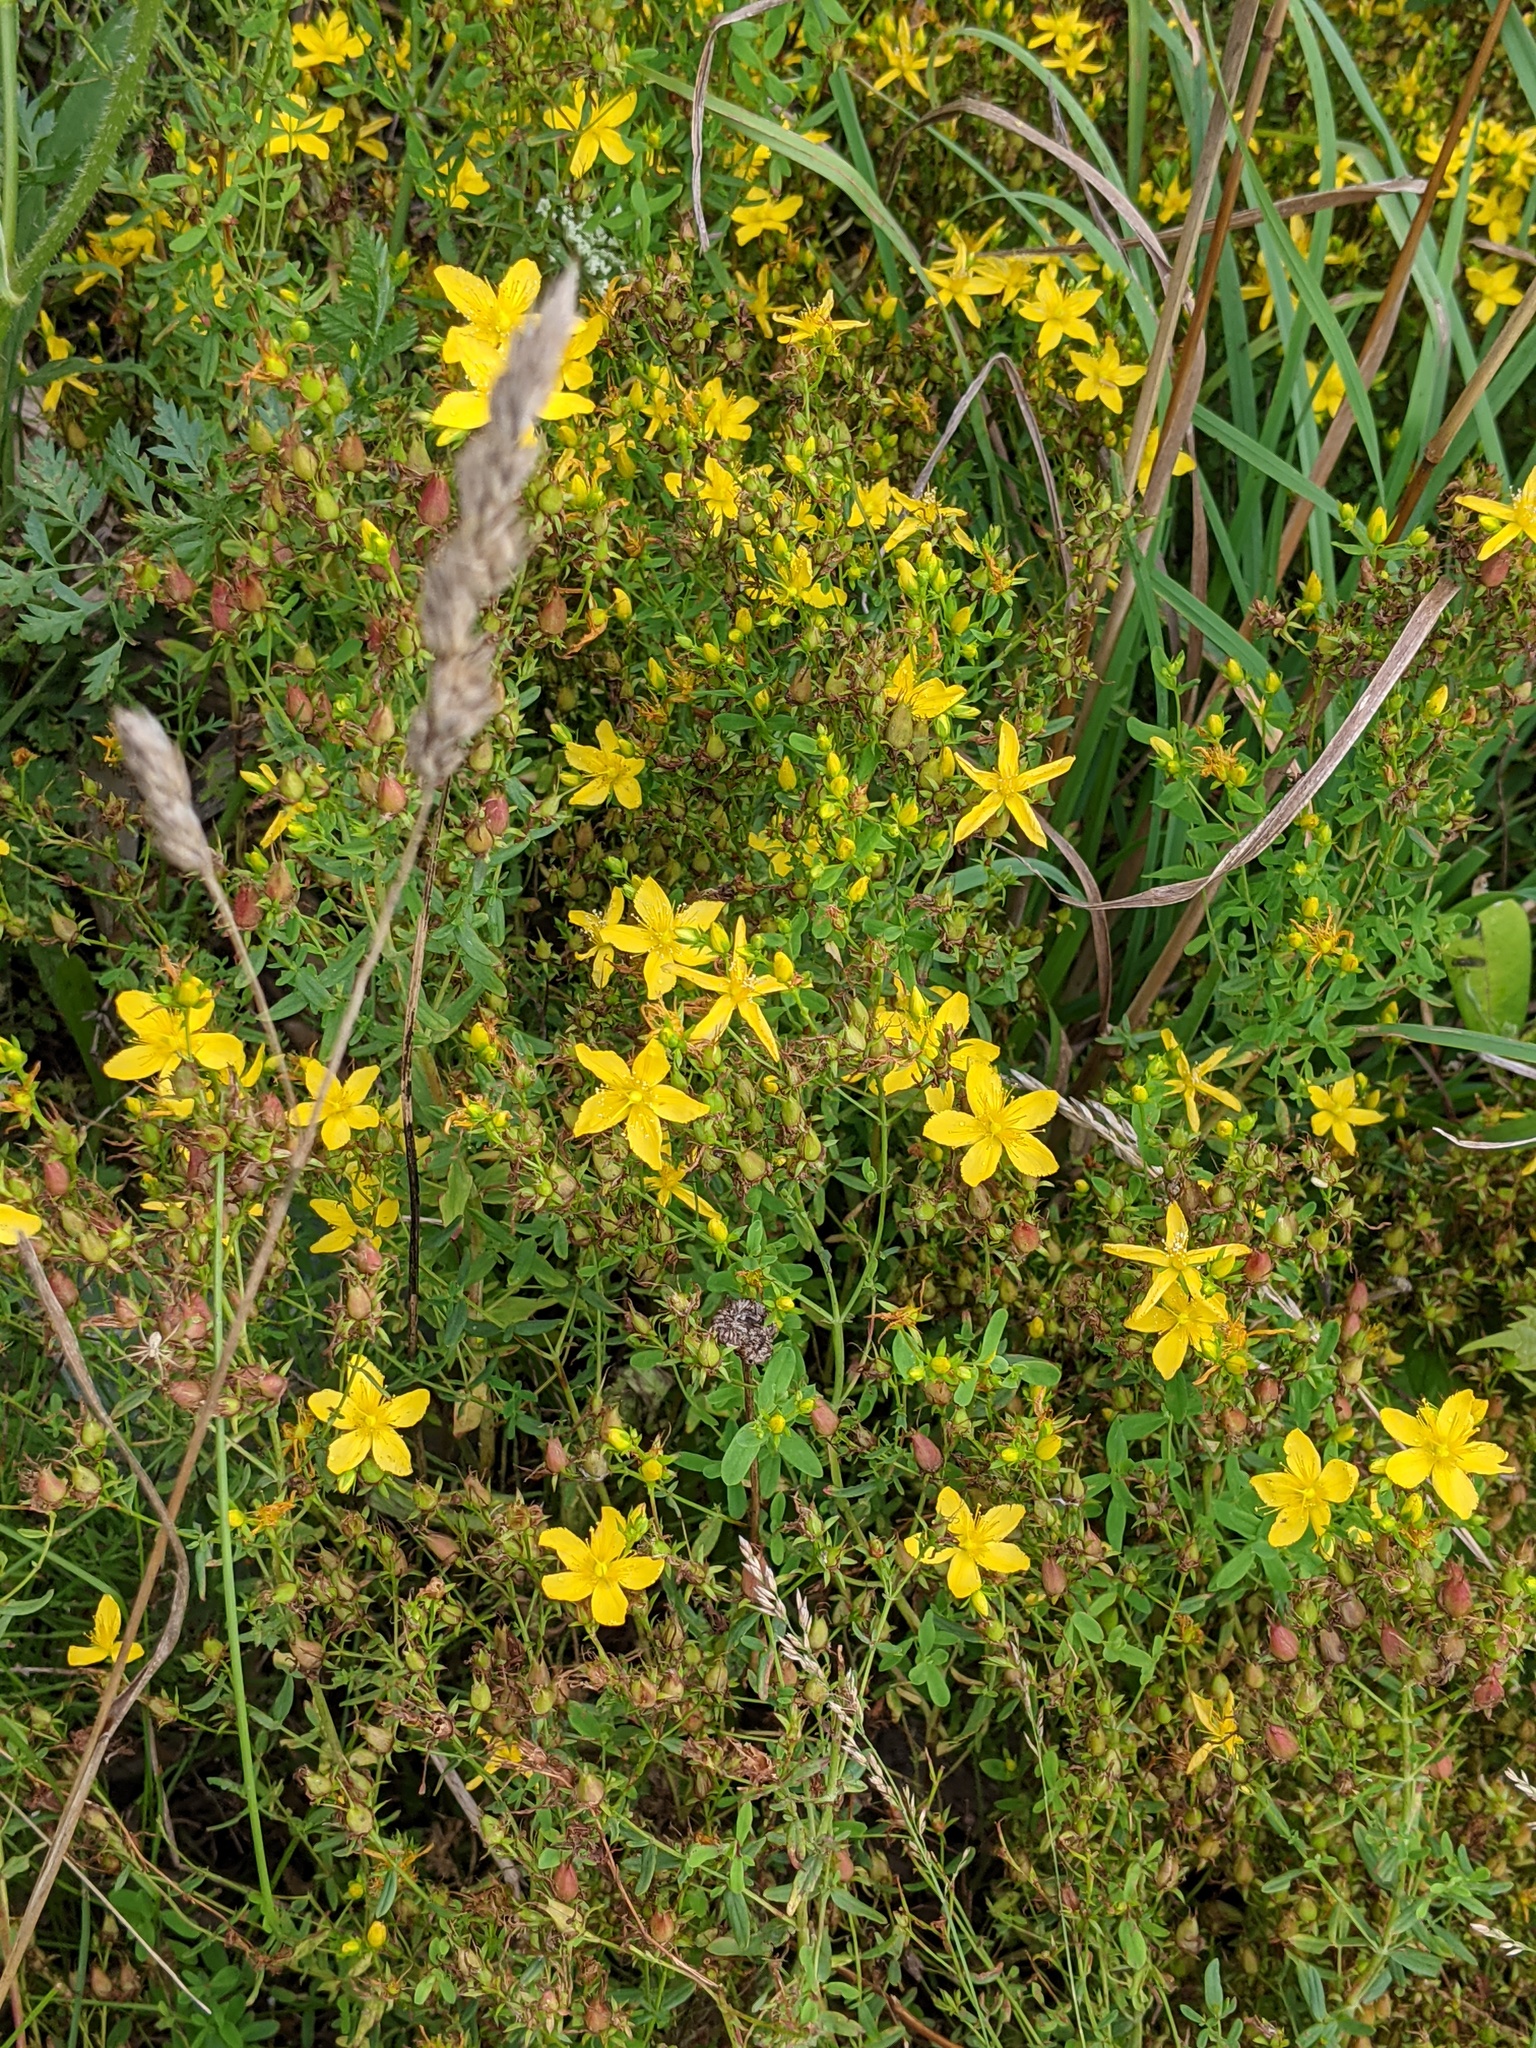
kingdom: Plantae
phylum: Tracheophyta
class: Magnoliopsida
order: Malpighiales
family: Hypericaceae
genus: Hypericum
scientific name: Hypericum perforatum
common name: Common st. johnswort
